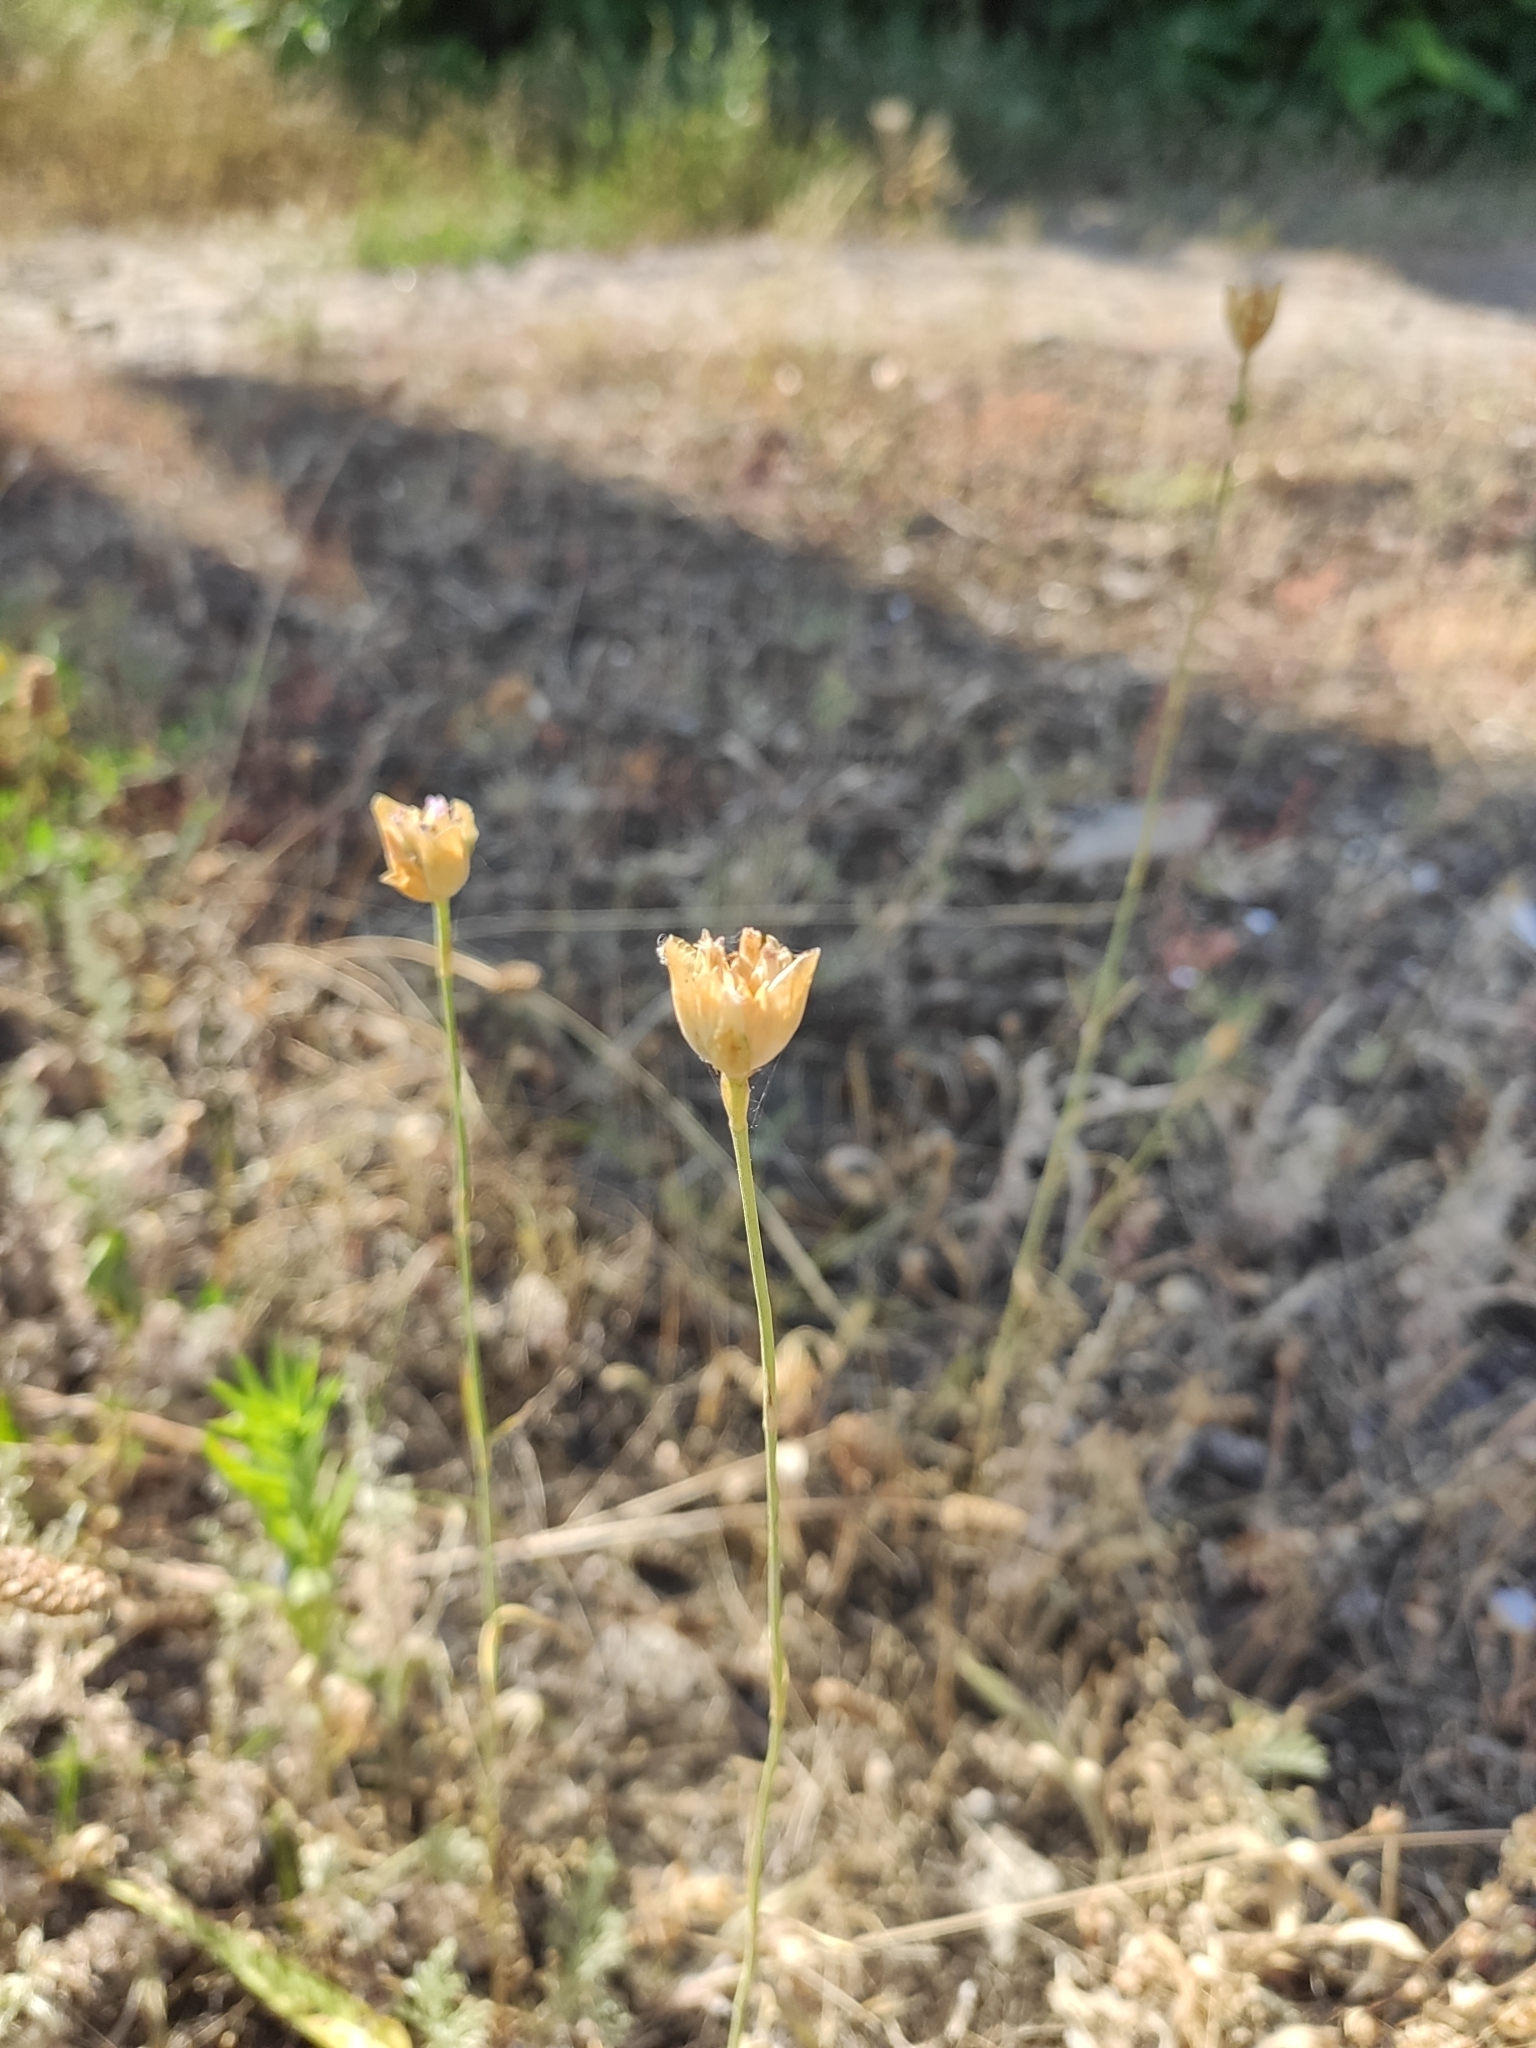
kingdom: Plantae
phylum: Tracheophyta
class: Magnoliopsida
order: Caryophyllales
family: Caryophyllaceae
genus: Petrorhagia
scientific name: Petrorhagia prolifera
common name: Proliferous pink
